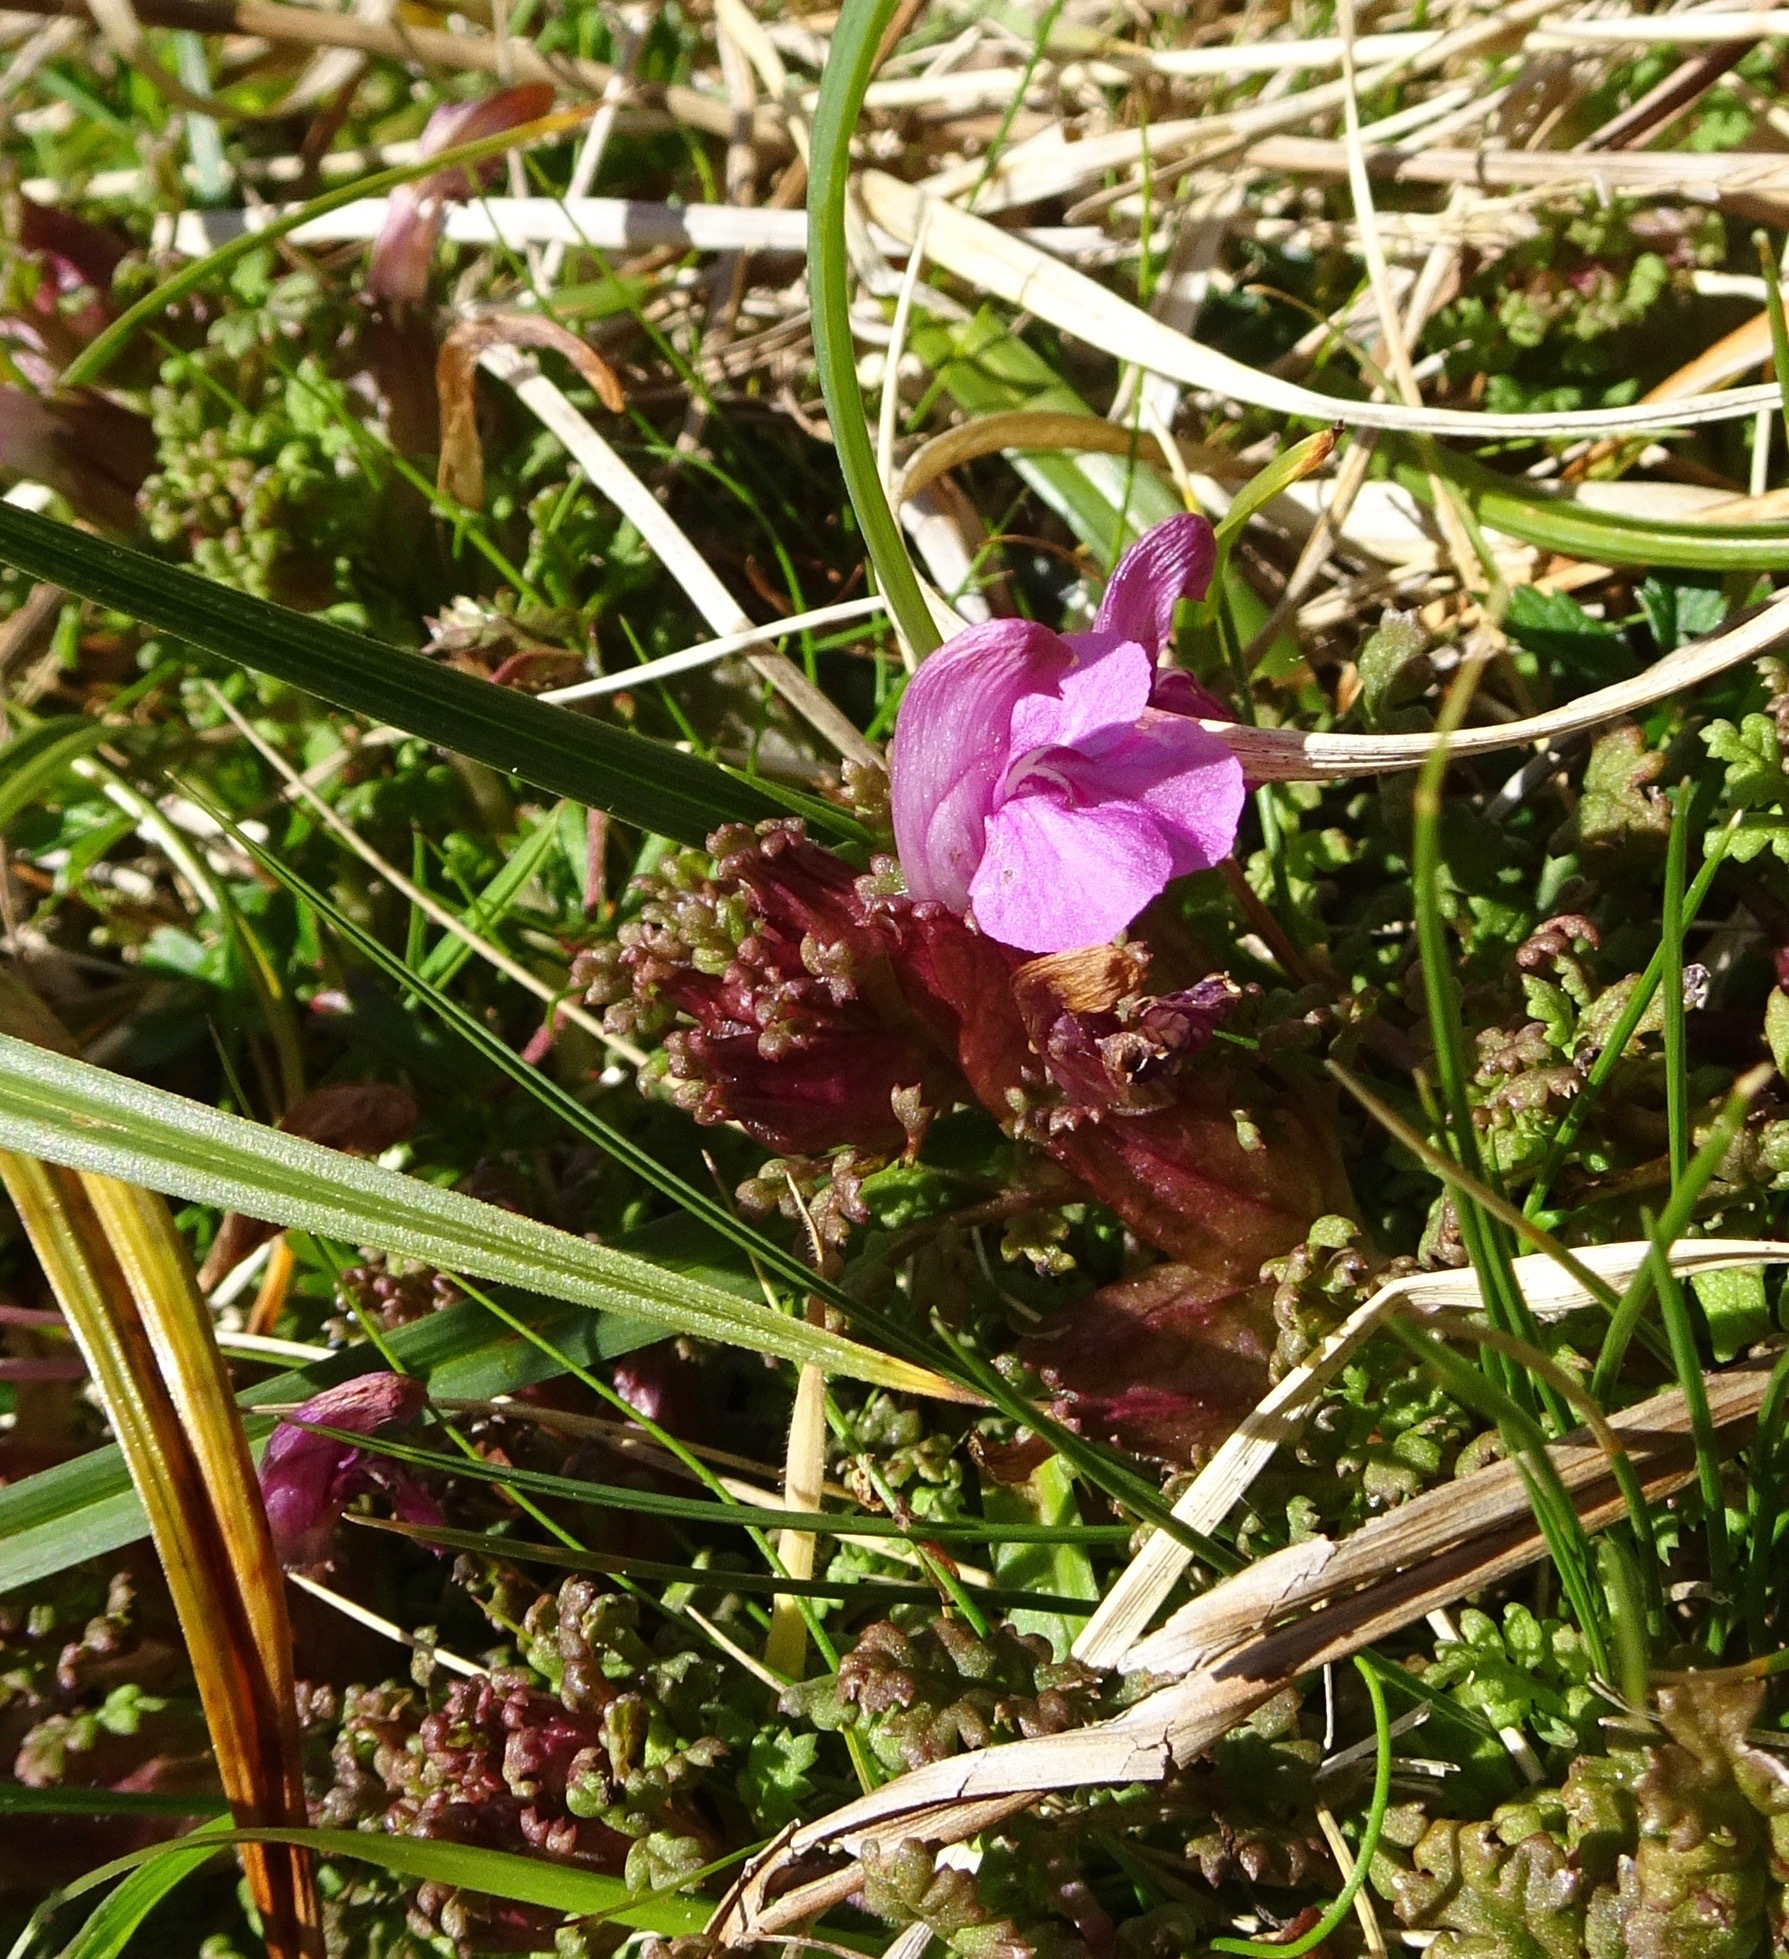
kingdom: Plantae
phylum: Tracheophyta
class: Magnoliopsida
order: Lamiales
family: Orobanchaceae
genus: Pedicularis
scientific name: Pedicularis sylvatica
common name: Lousewort
